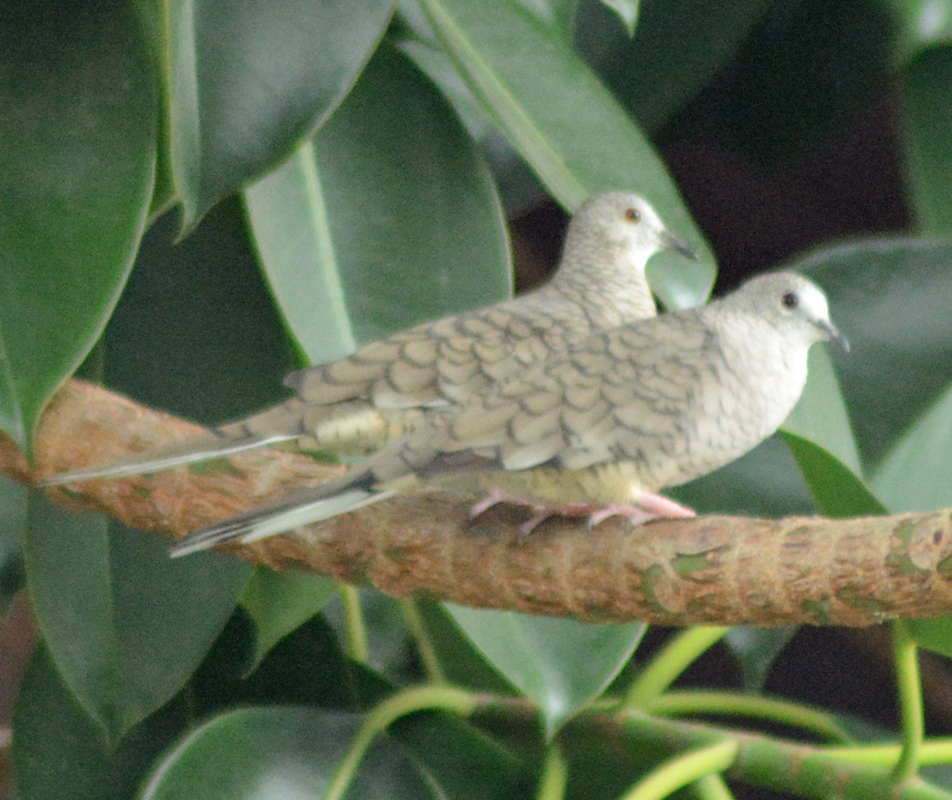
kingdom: Animalia
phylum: Chordata
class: Aves
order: Columbiformes
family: Columbidae
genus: Columbina
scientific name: Columbina inca
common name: Inca dove
